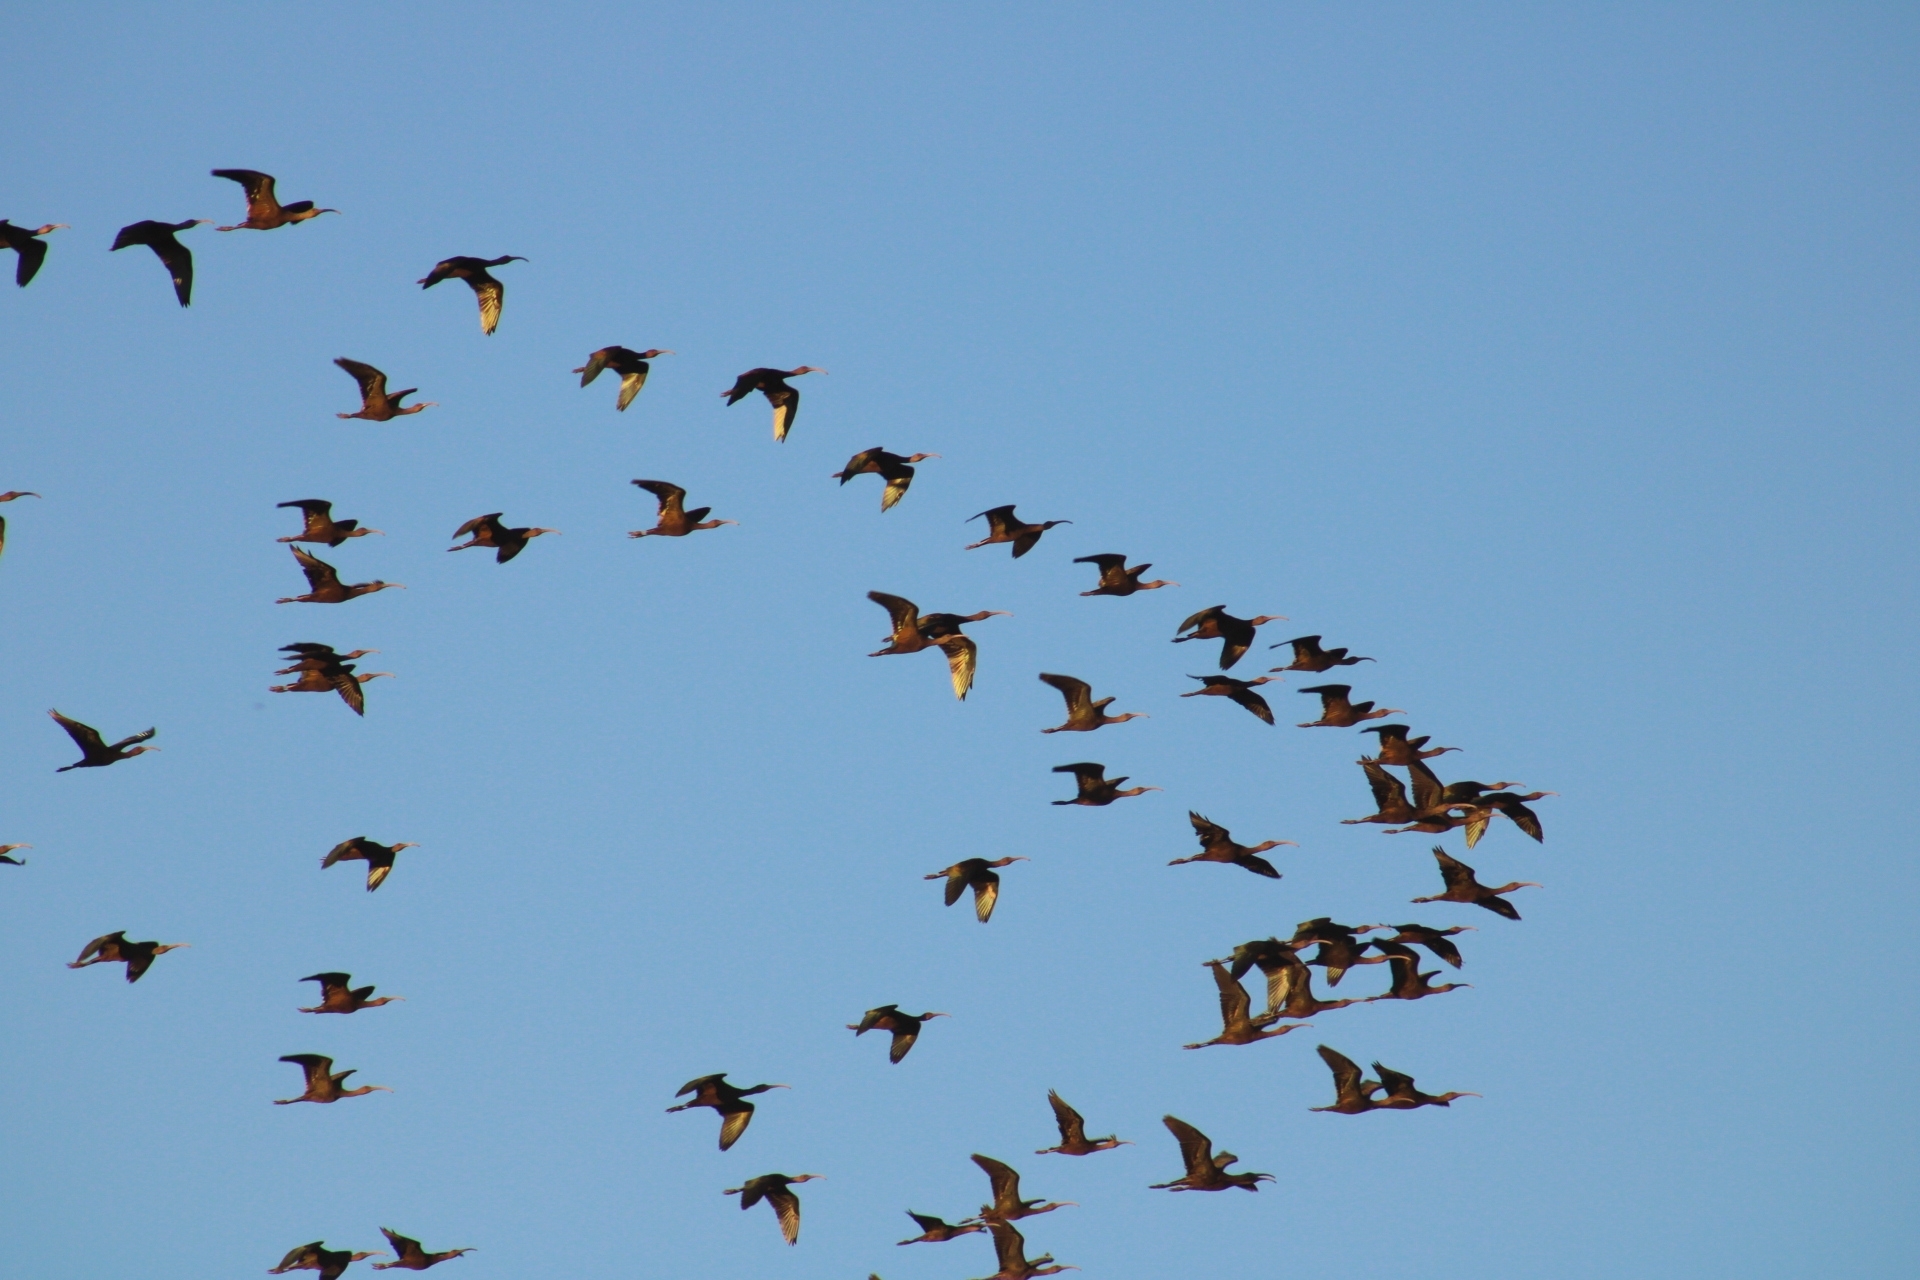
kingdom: Animalia
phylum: Chordata
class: Aves
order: Pelecaniformes
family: Threskiornithidae
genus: Plegadis
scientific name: Plegadis chihi
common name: White-faced ibis
